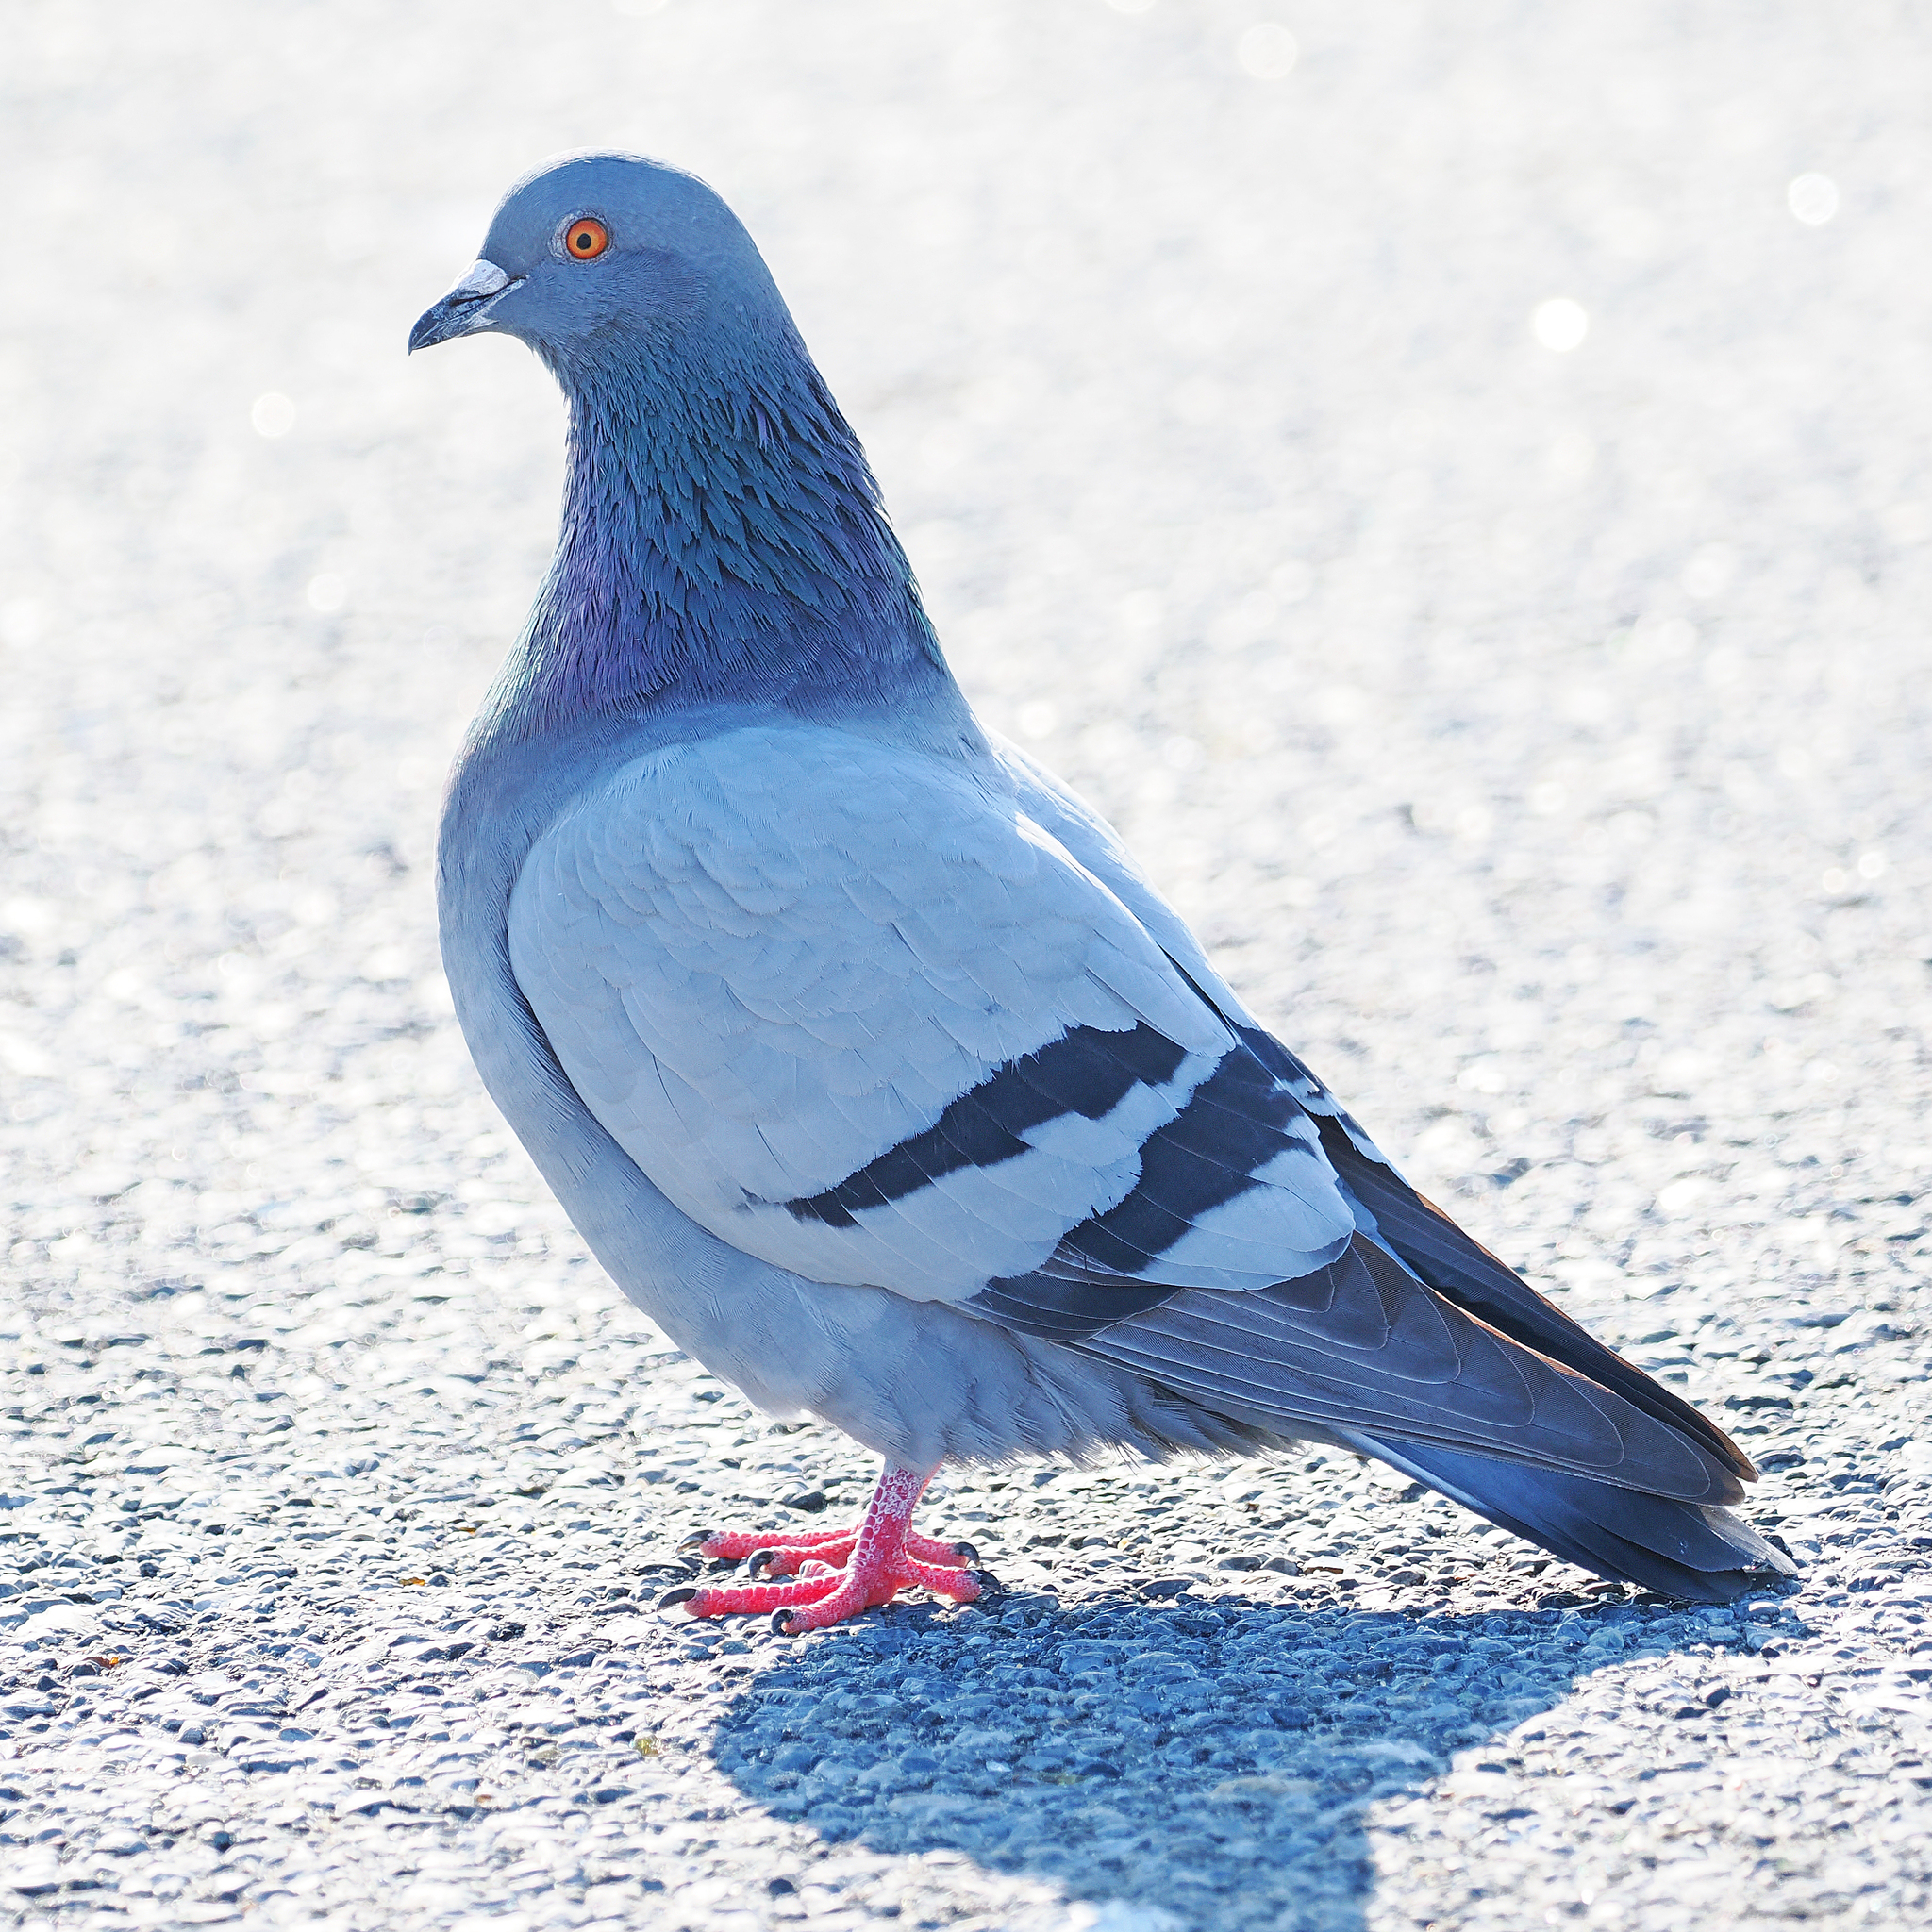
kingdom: Animalia
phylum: Chordata
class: Aves
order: Columbiformes
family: Columbidae
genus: Columba
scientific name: Columba livia
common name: Rock pigeon
